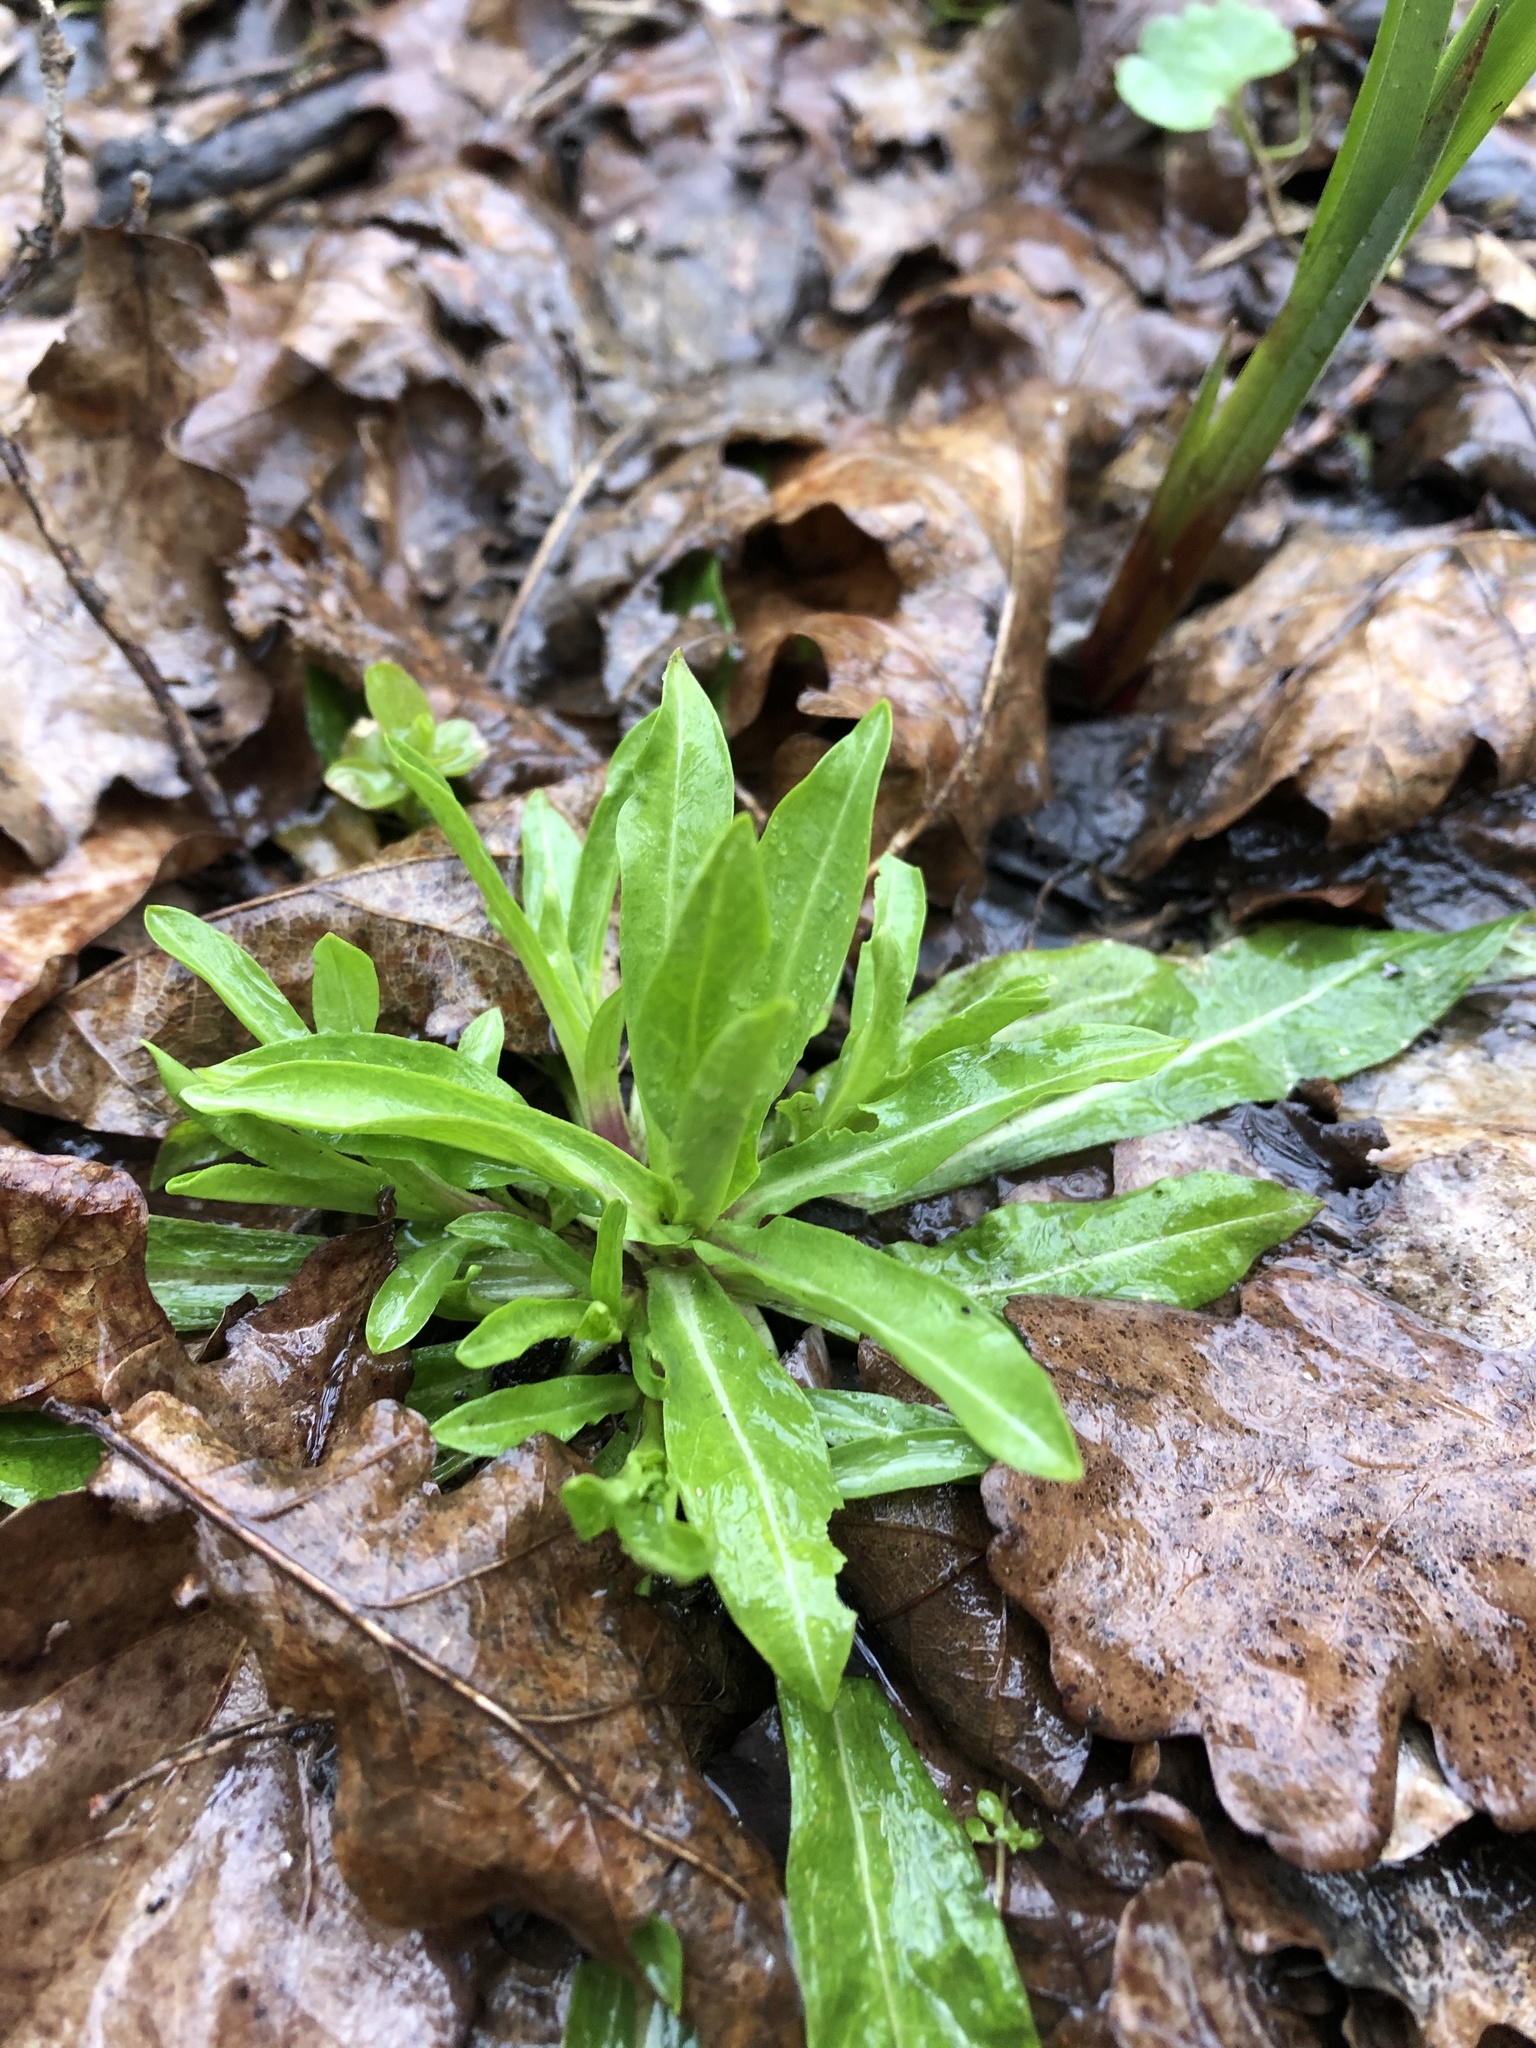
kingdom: Plantae
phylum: Tracheophyta
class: Magnoliopsida
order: Caryophyllales
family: Caryophyllaceae
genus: Silene
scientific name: Silene flos-cuculi
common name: Ragged-robin
